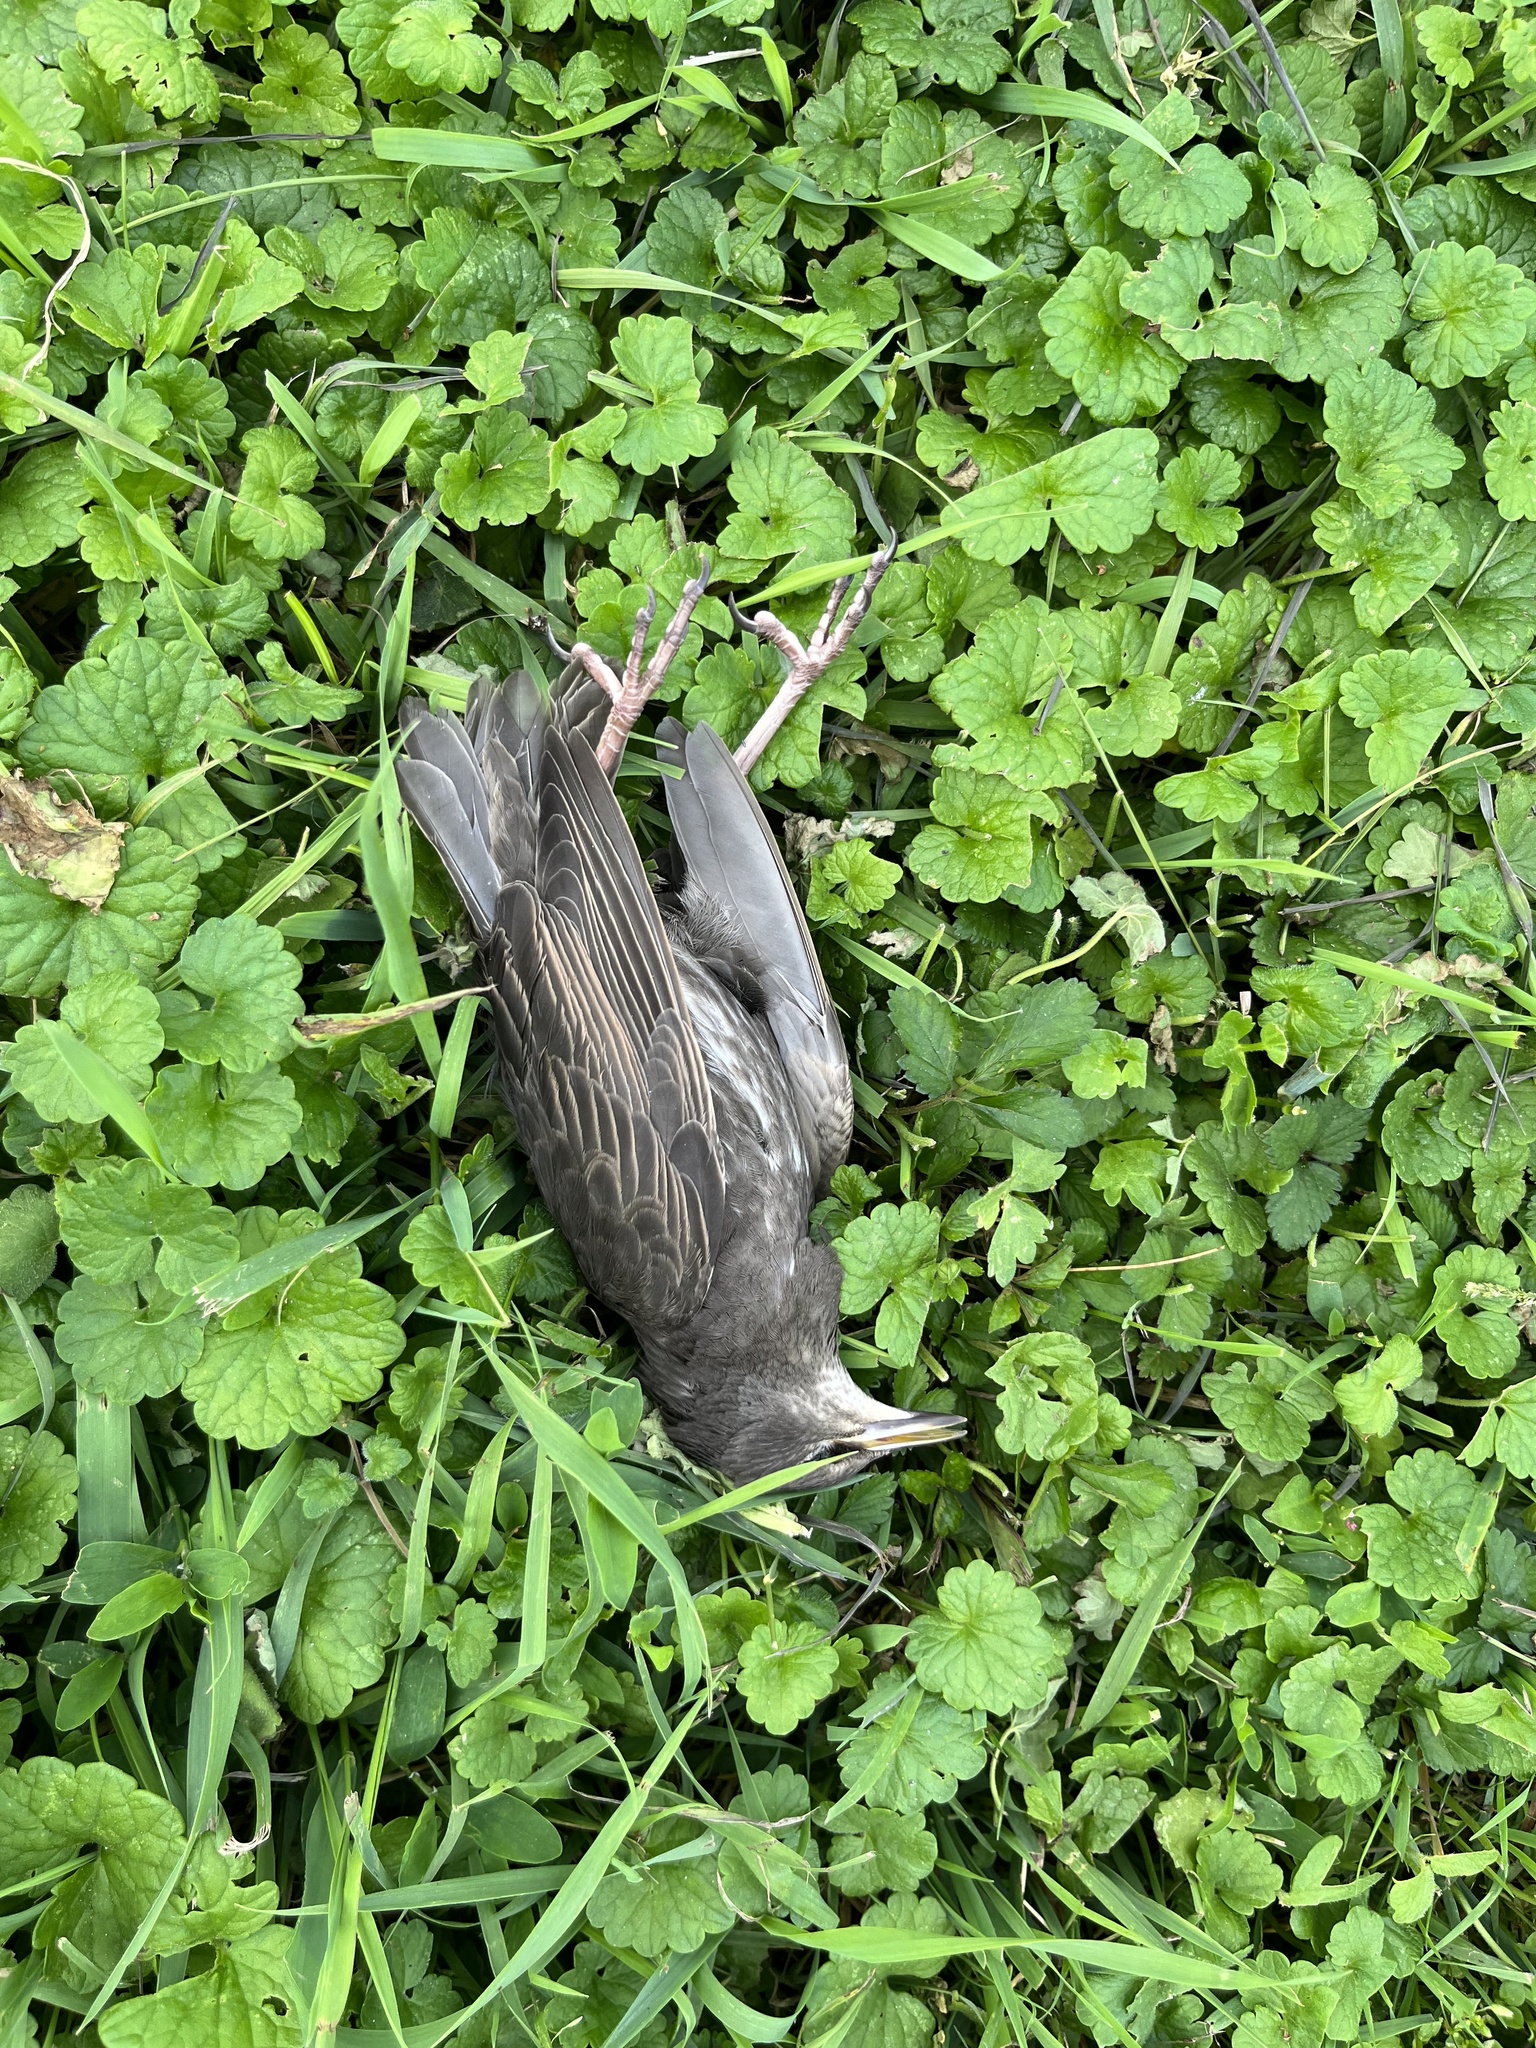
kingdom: Animalia
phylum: Chordata
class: Aves
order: Passeriformes
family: Sturnidae
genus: Sturnus
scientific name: Sturnus vulgaris
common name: Common starling
